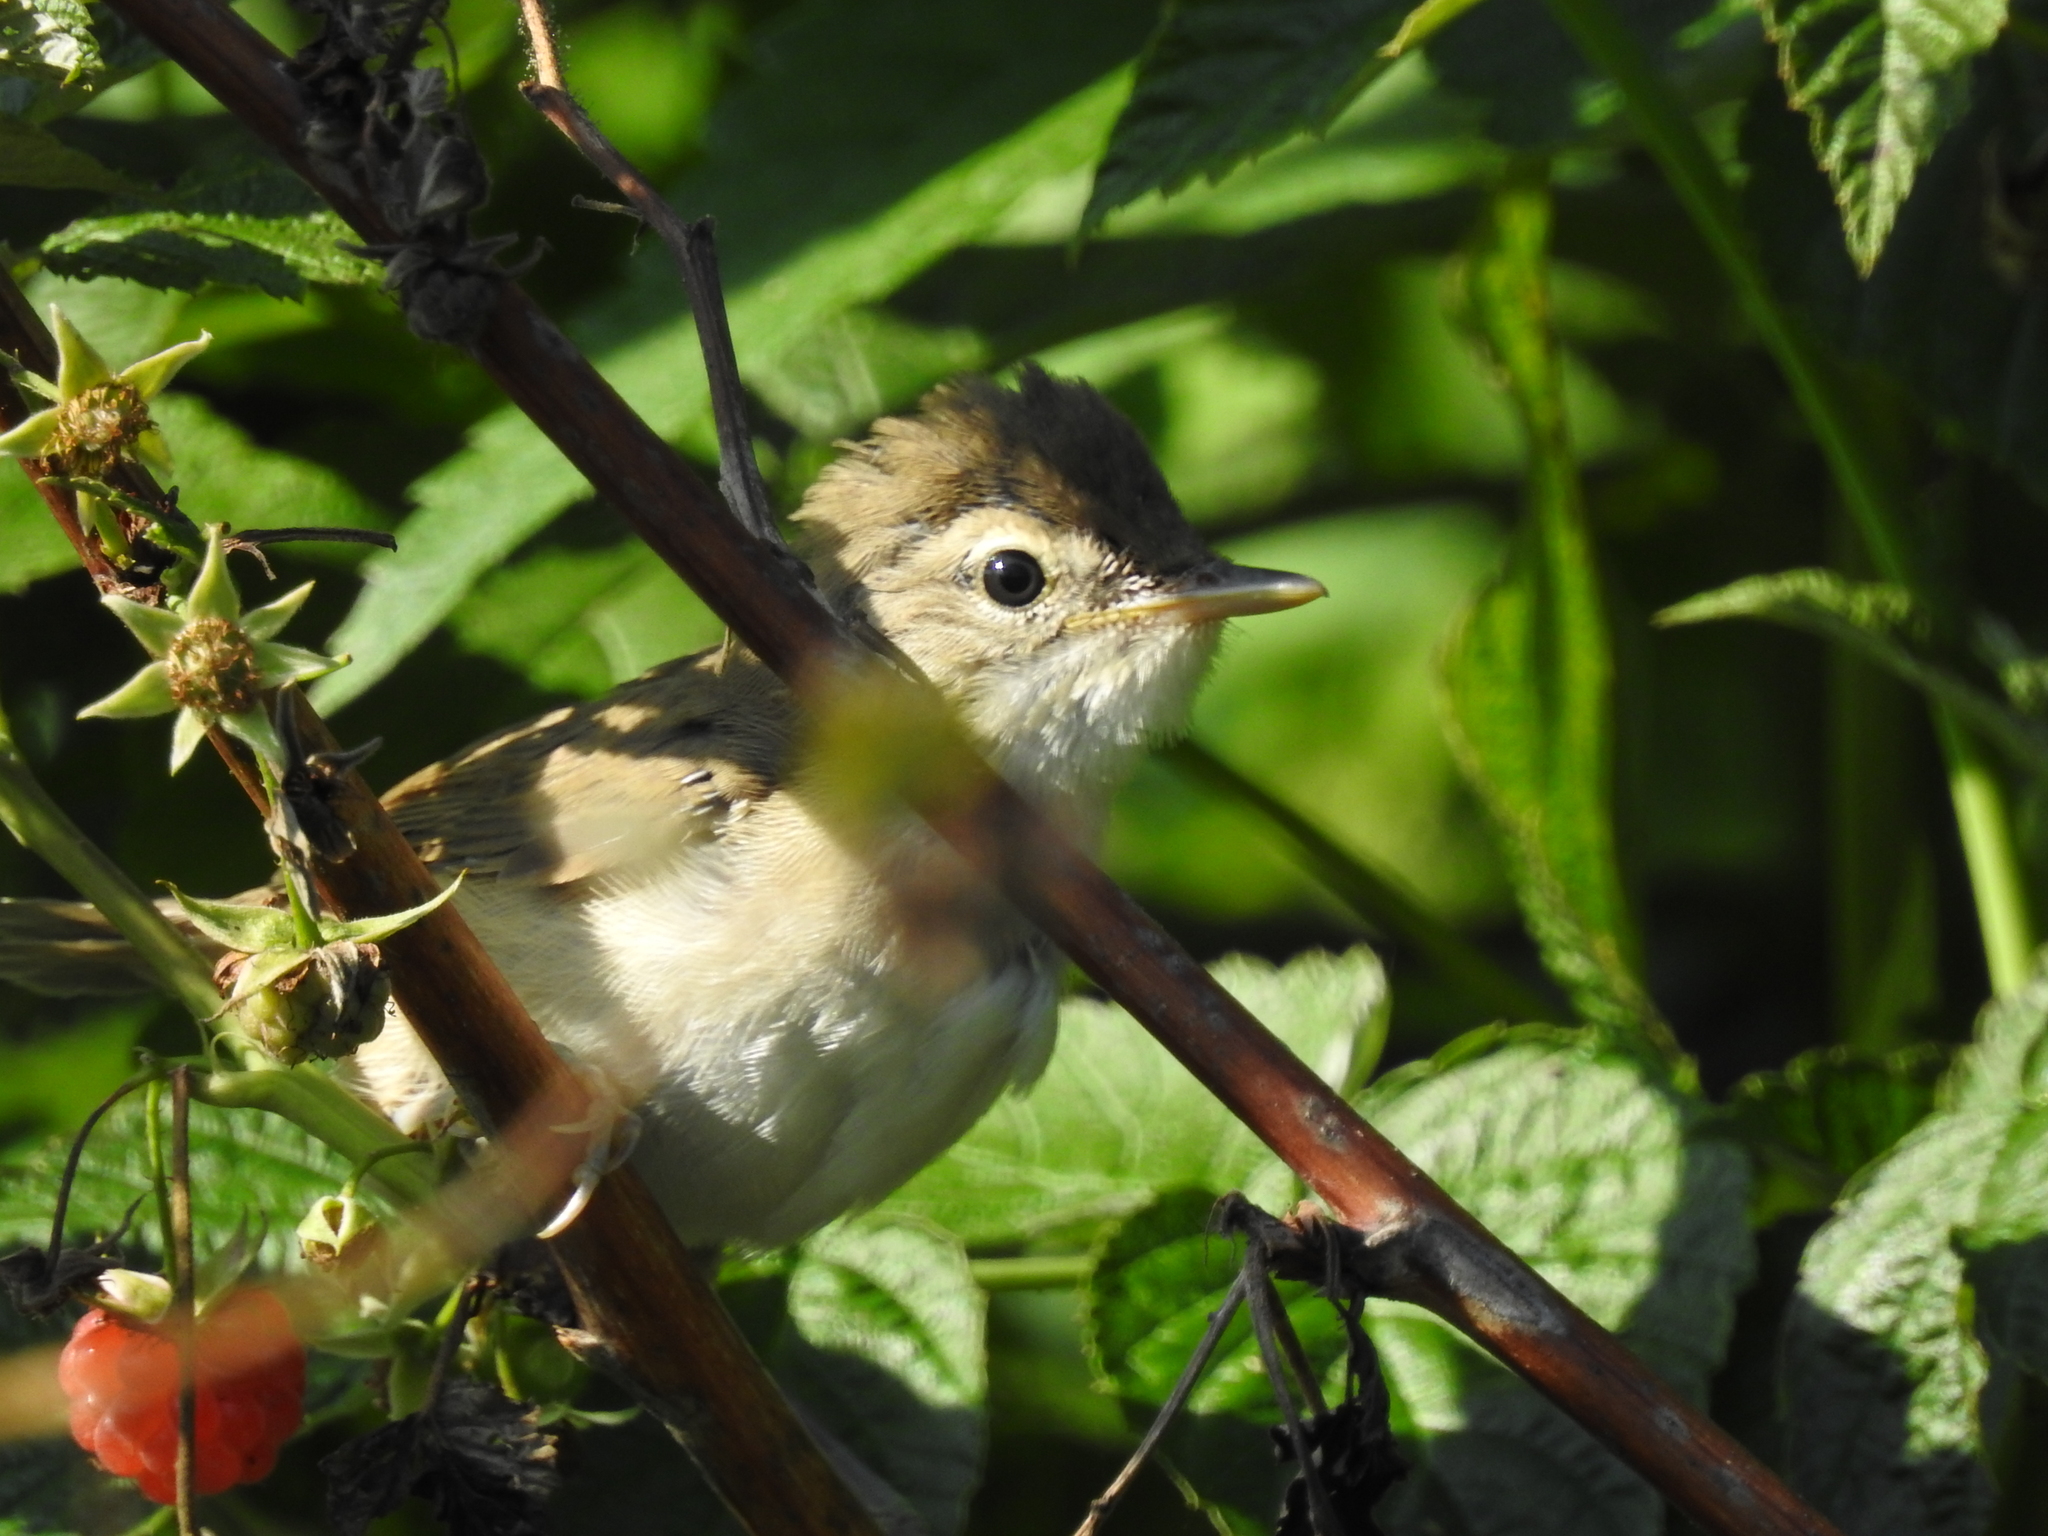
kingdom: Animalia
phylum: Chordata
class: Aves
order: Passeriformes
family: Acrocephalidae
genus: Iduna
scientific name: Iduna caligata
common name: Booted warbler
